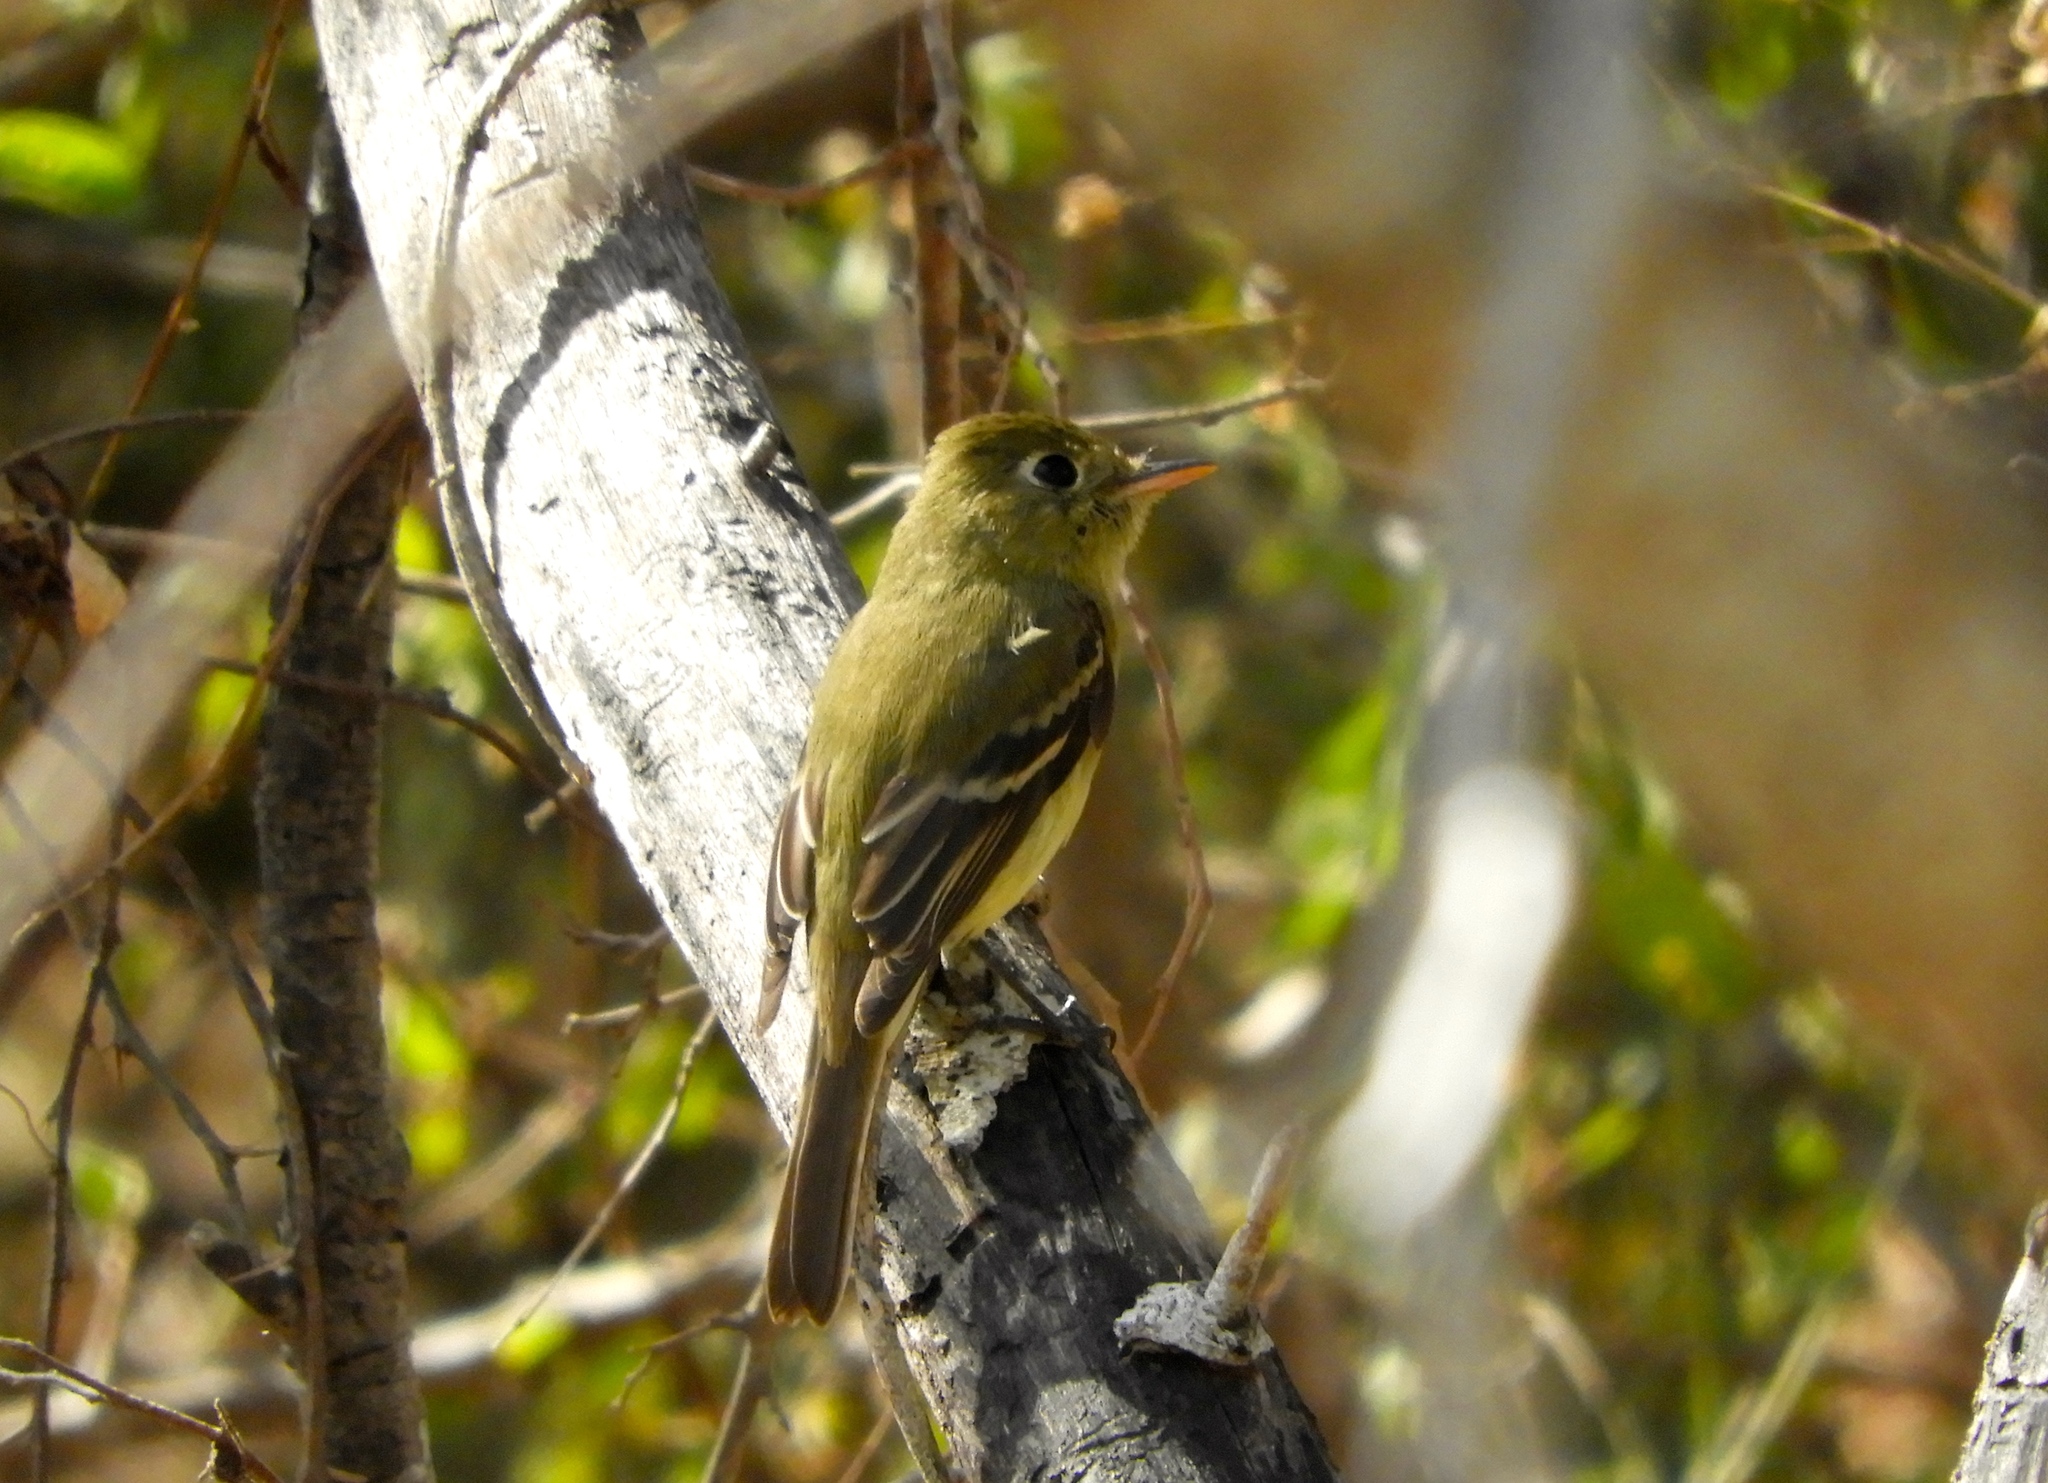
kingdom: Animalia
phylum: Chordata
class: Aves
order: Passeriformes
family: Tyrannidae
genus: Empidonax
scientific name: Empidonax
